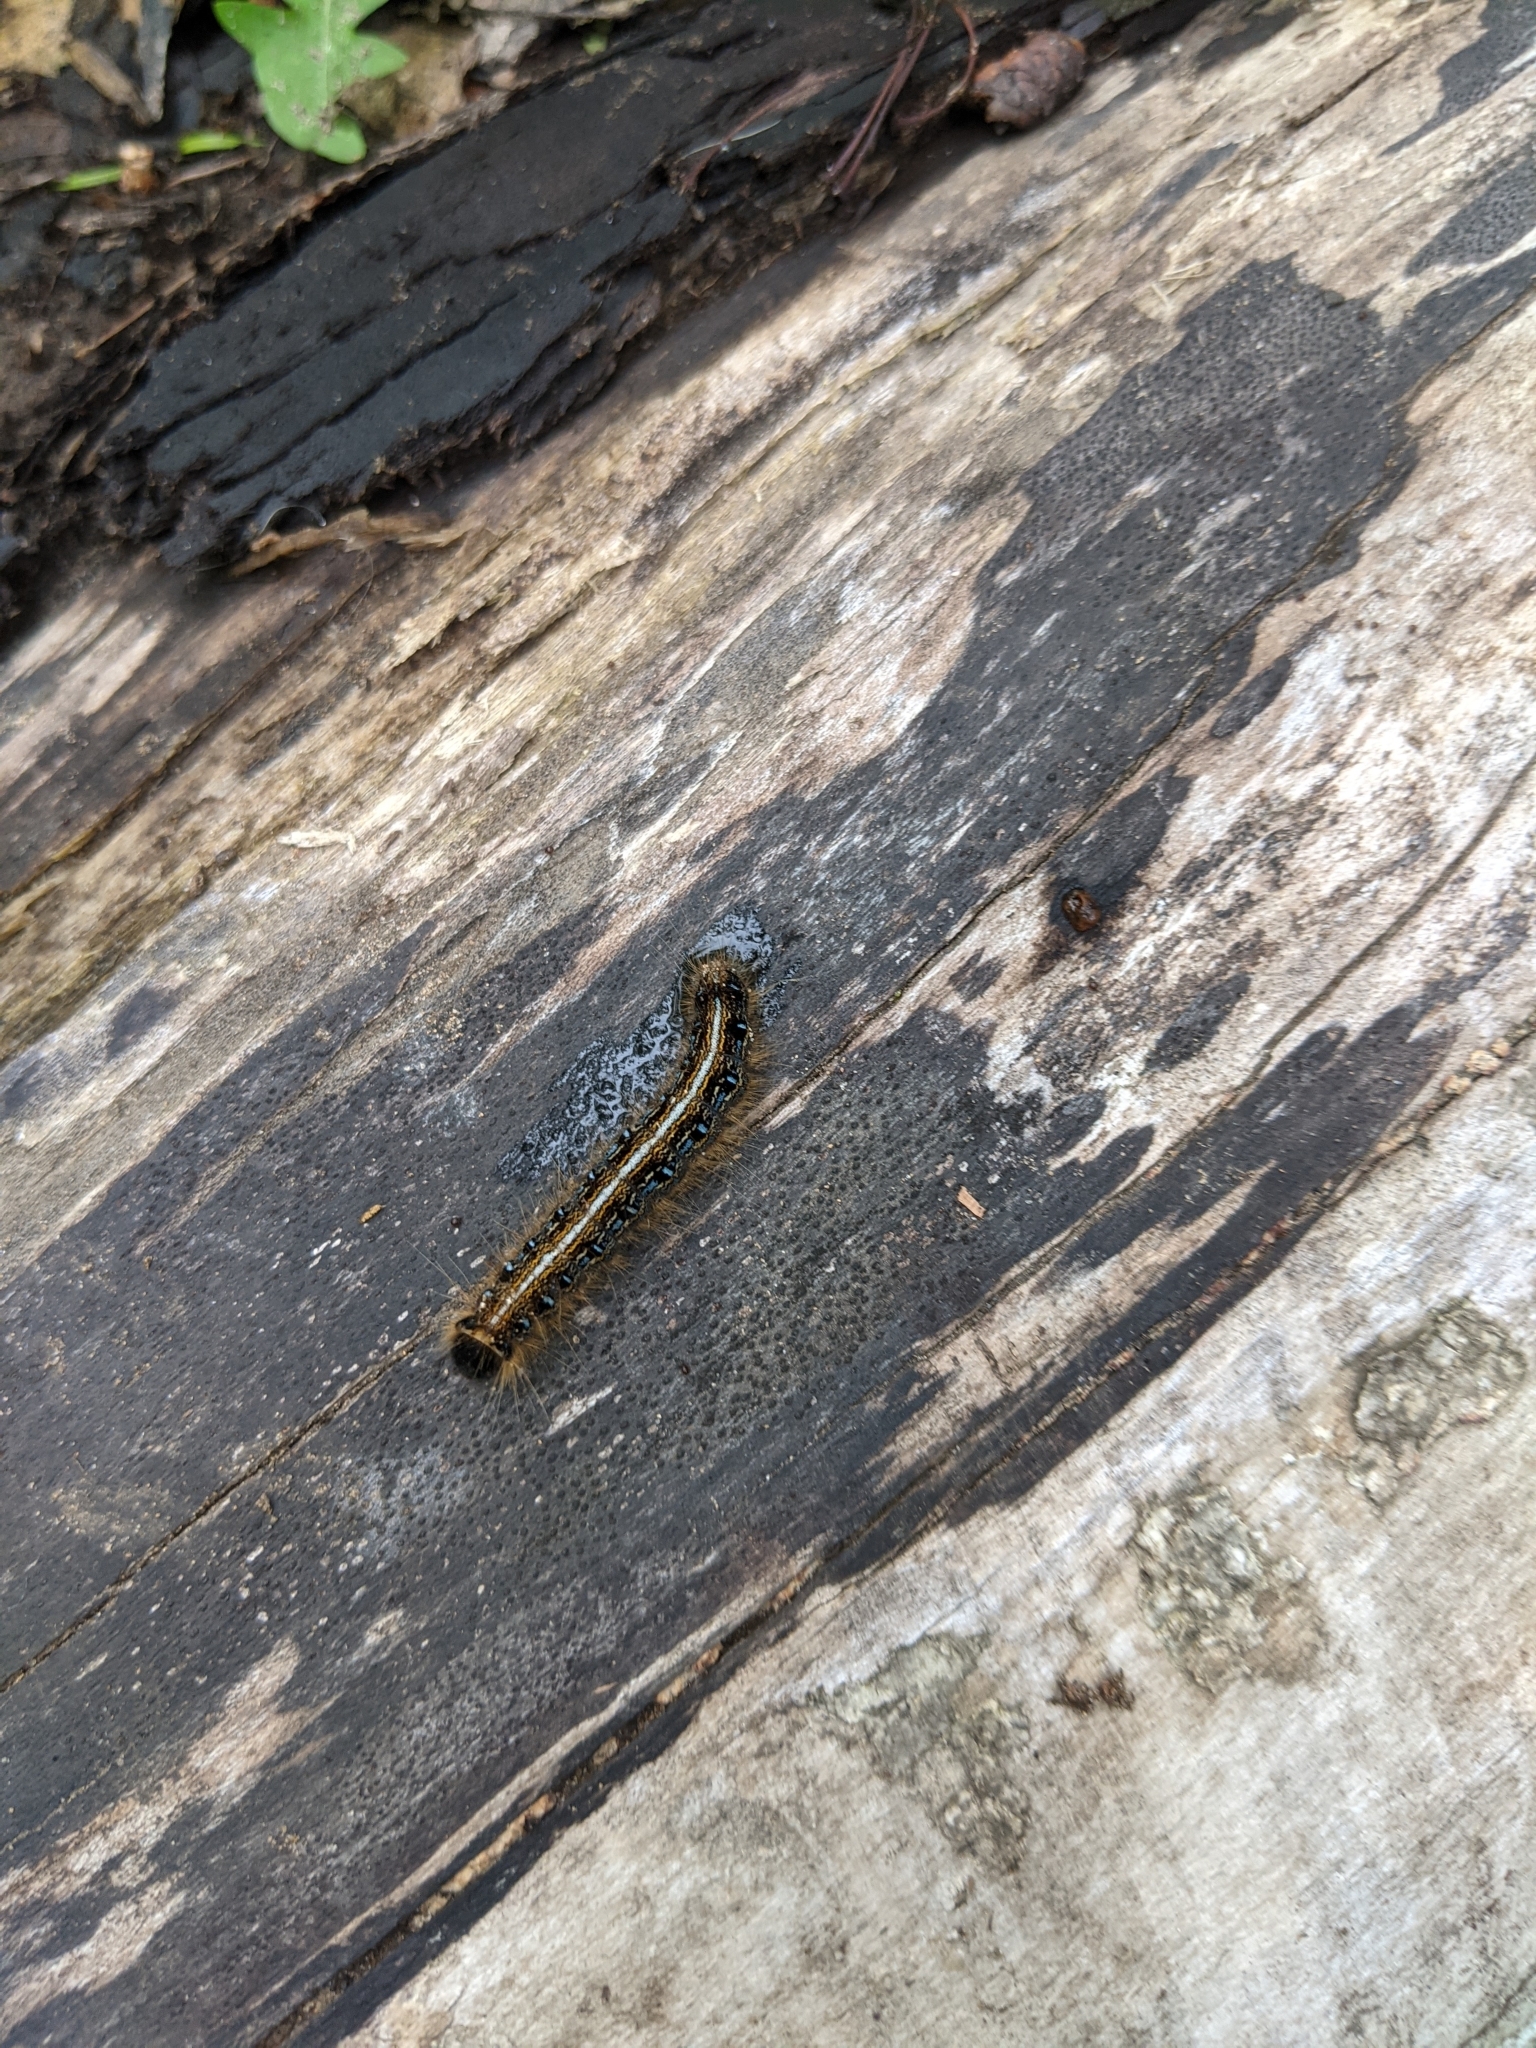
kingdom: Animalia
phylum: Arthropoda
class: Insecta
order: Lepidoptera
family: Lasiocampidae
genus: Malacosoma
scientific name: Malacosoma americana
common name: Eastern tent caterpillar moth
